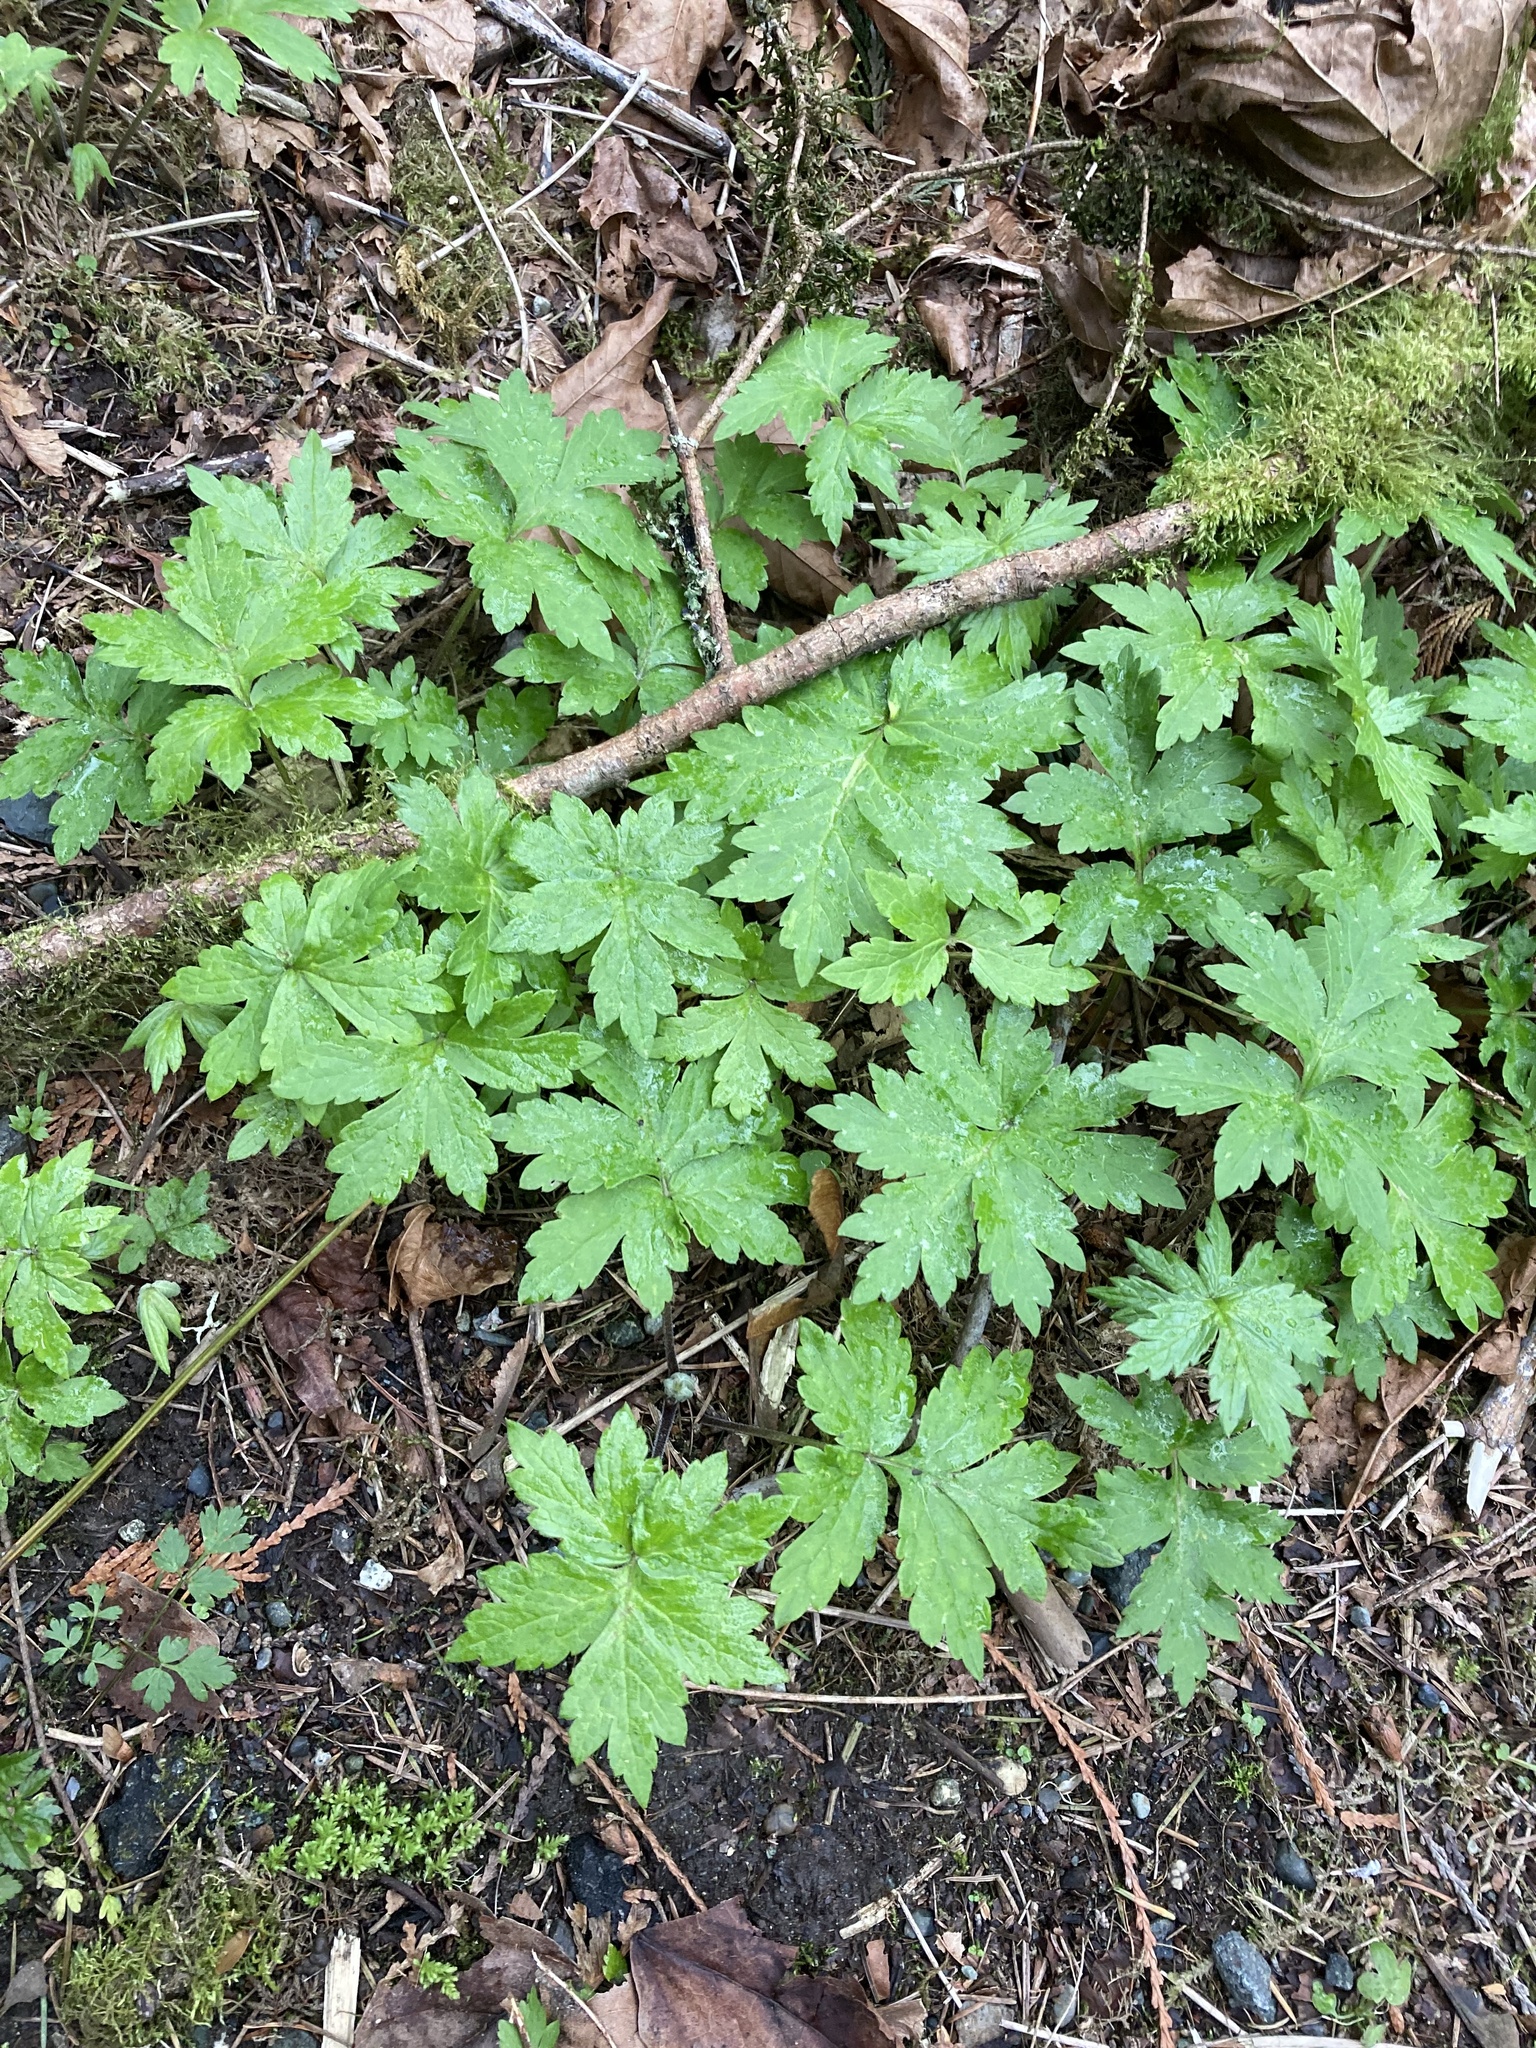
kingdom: Plantae
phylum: Tracheophyta
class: Magnoliopsida
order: Boraginales
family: Hydrophyllaceae
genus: Hydrophyllum
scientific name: Hydrophyllum tenuipes
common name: Pacific waterleaf
